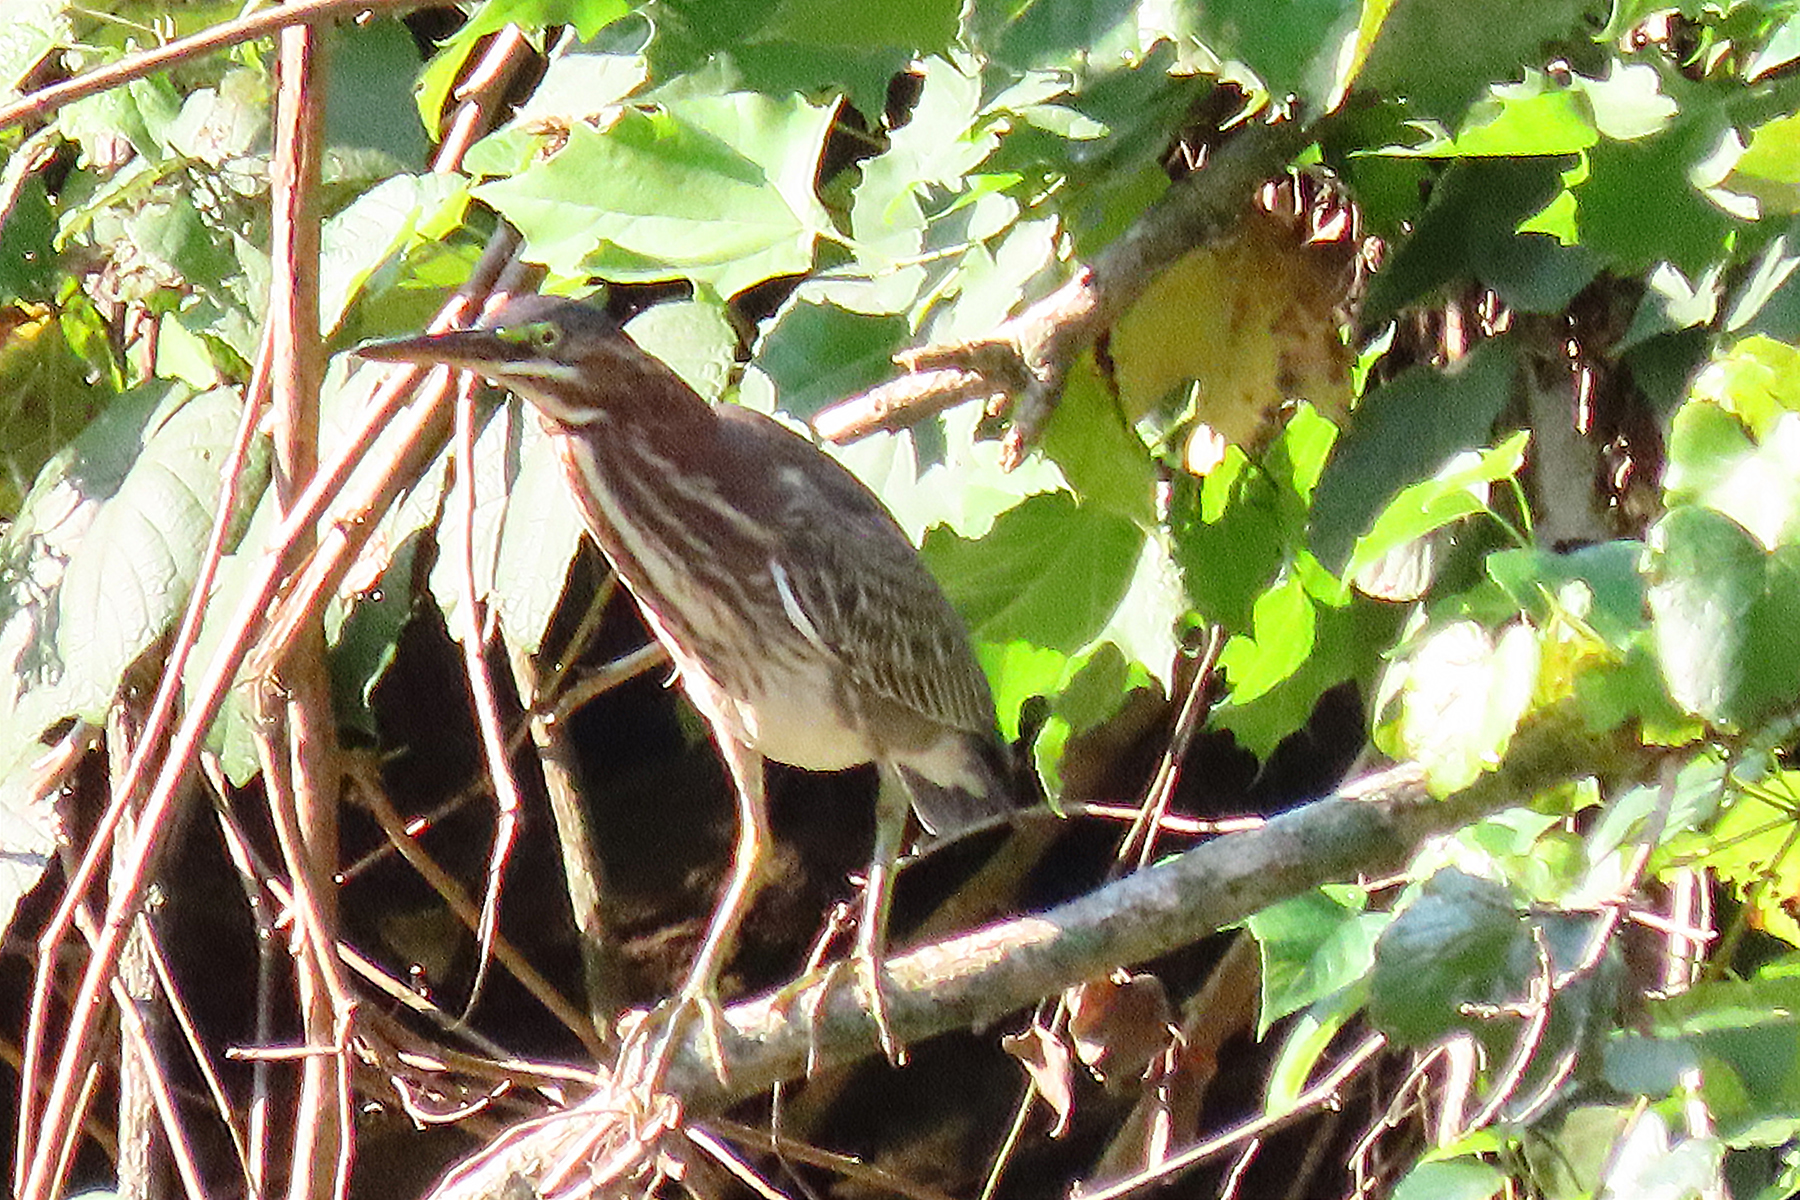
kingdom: Animalia
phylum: Chordata
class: Aves
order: Pelecaniformes
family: Ardeidae
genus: Butorides
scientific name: Butorides virescens
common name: Green heron
